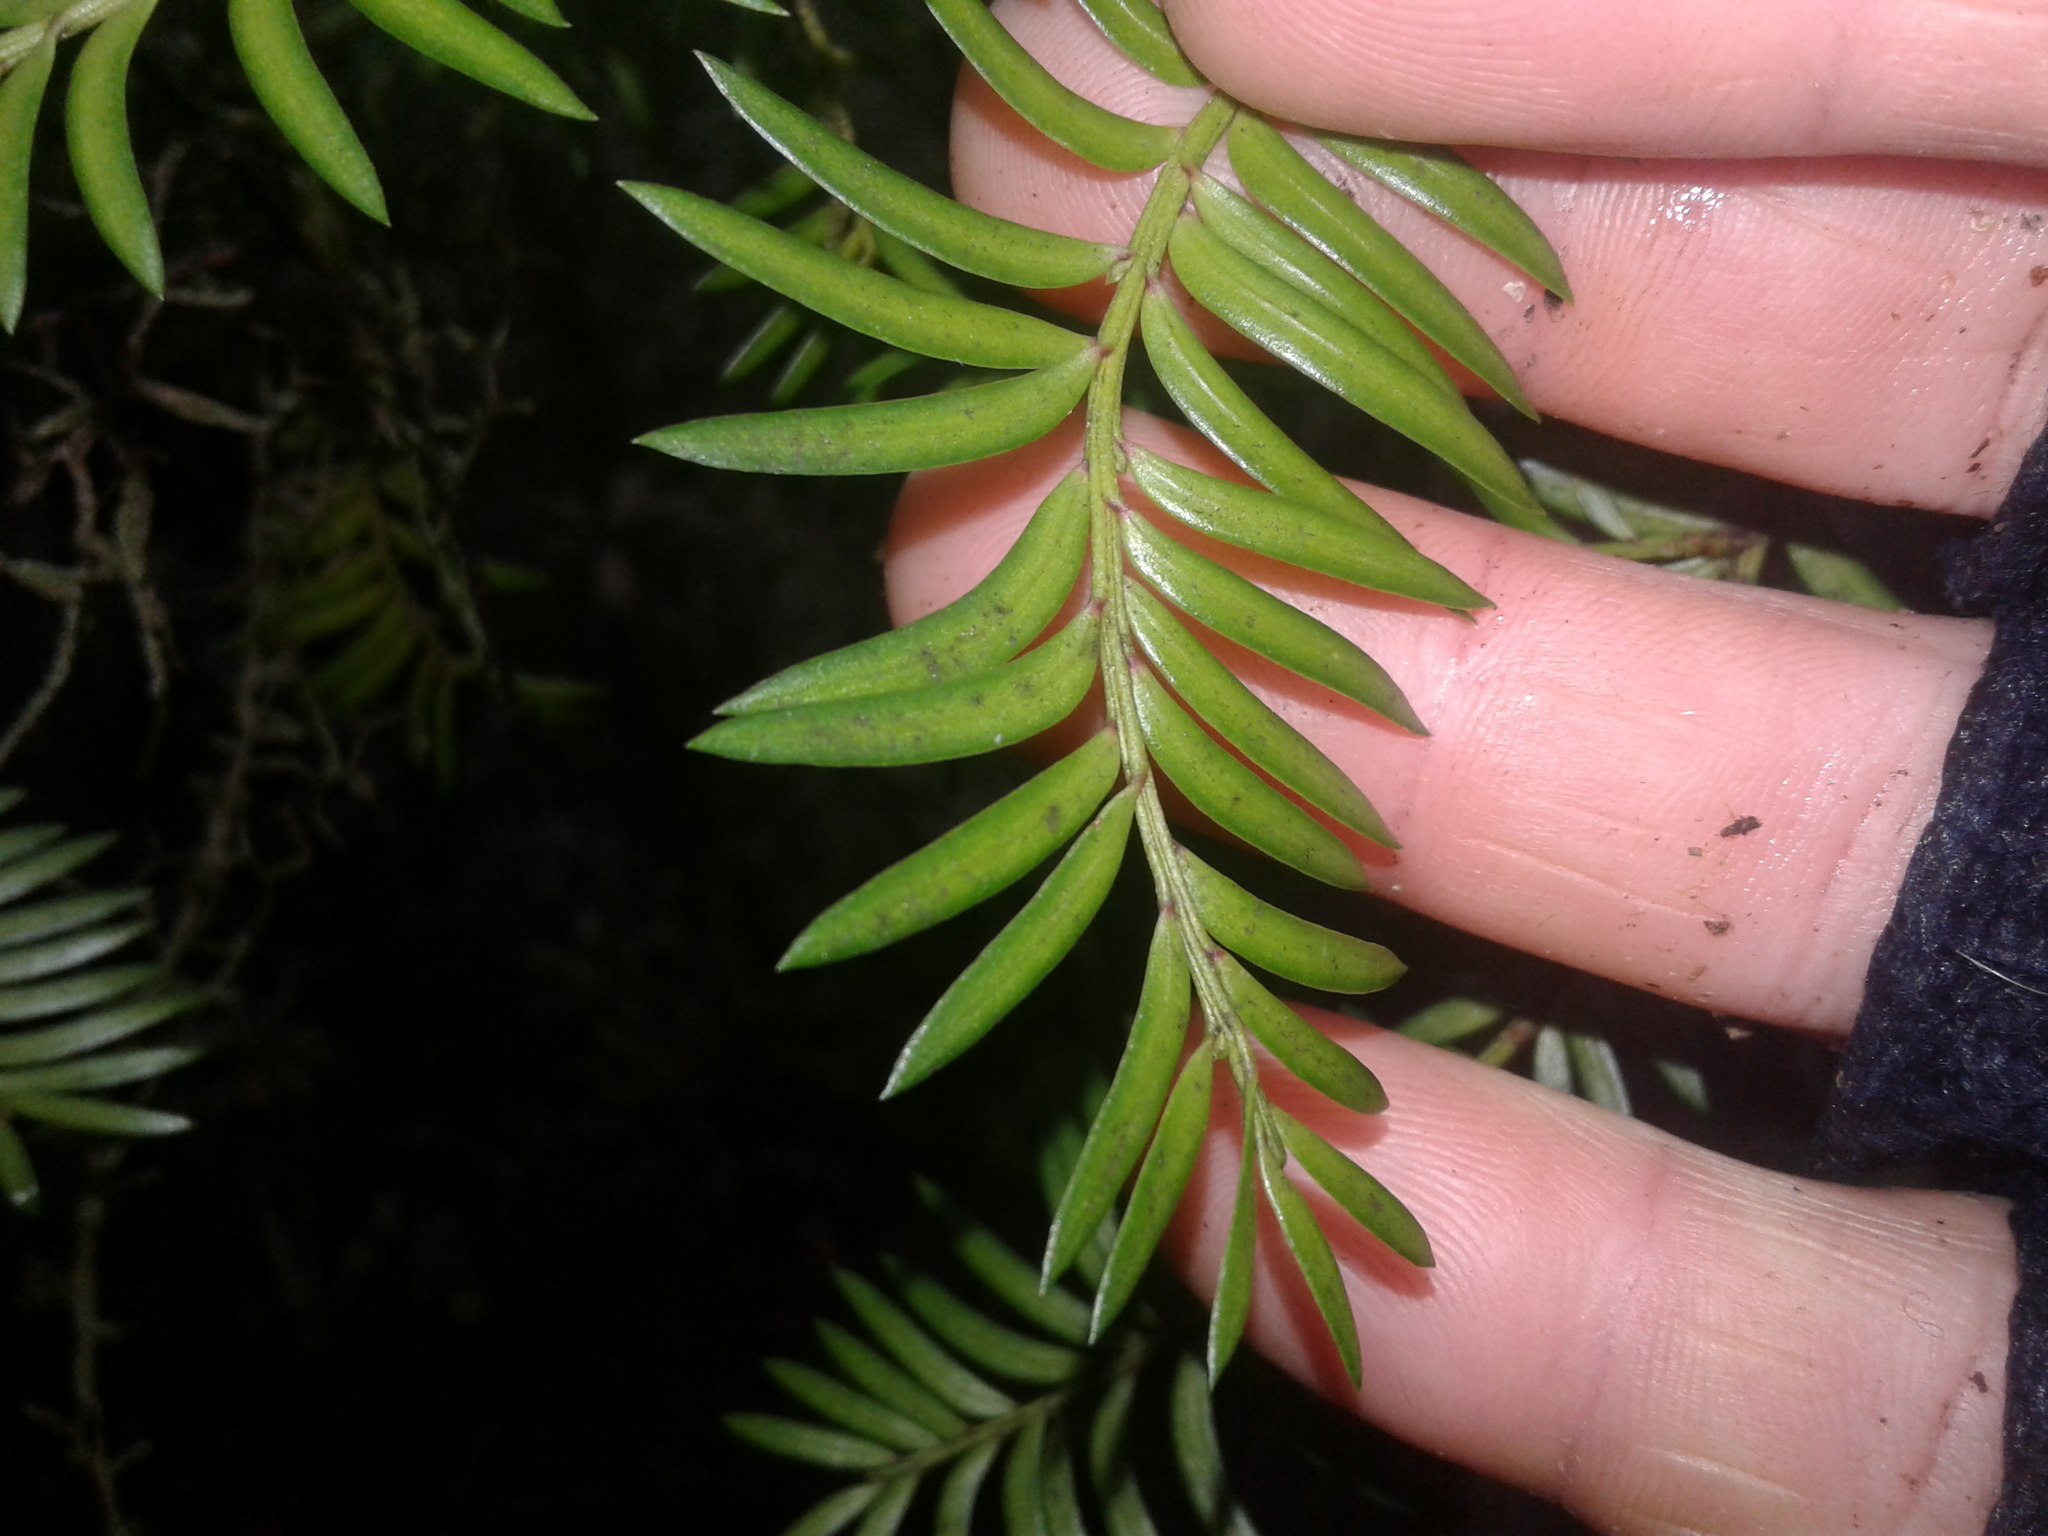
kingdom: Plantae
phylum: Tracheophyta
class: Pinopsida
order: Pinales
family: Podocarpaceae
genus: Prumnopitys
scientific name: Prumnopitys ferruginea
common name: Brown pine
